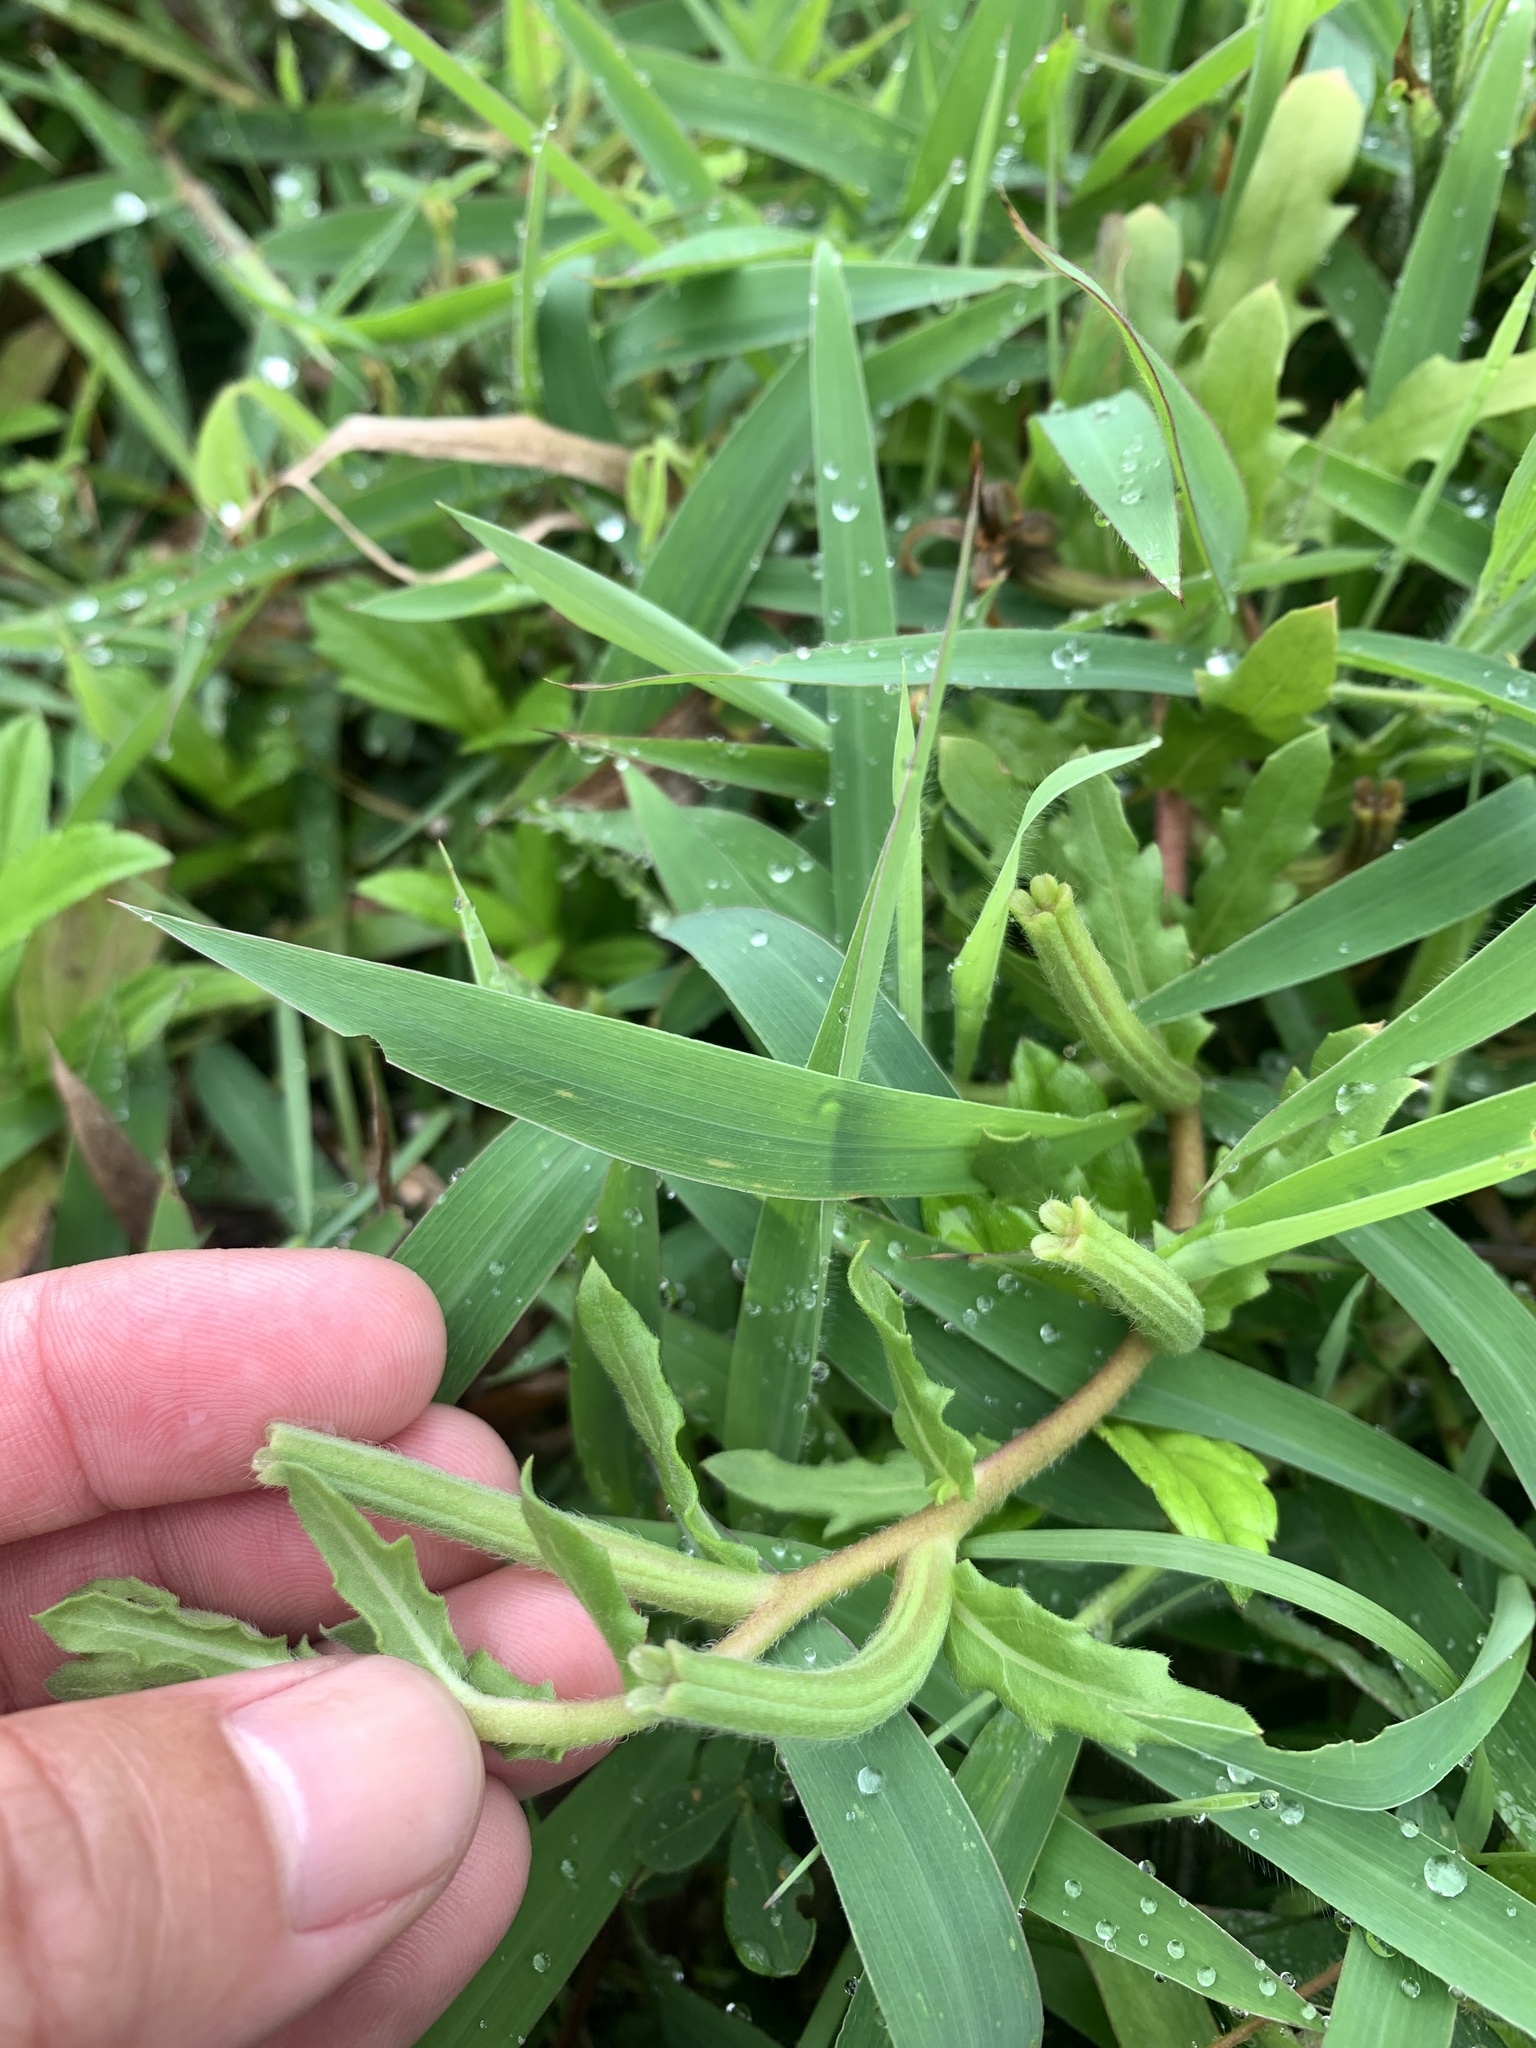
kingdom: Plantae
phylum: Tracheophyta
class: Magnoliopsida
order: Myrtales
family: Onagraceae
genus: Oenothera
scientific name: Oenothera laciniata
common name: Cut-leaved evening-primrose
